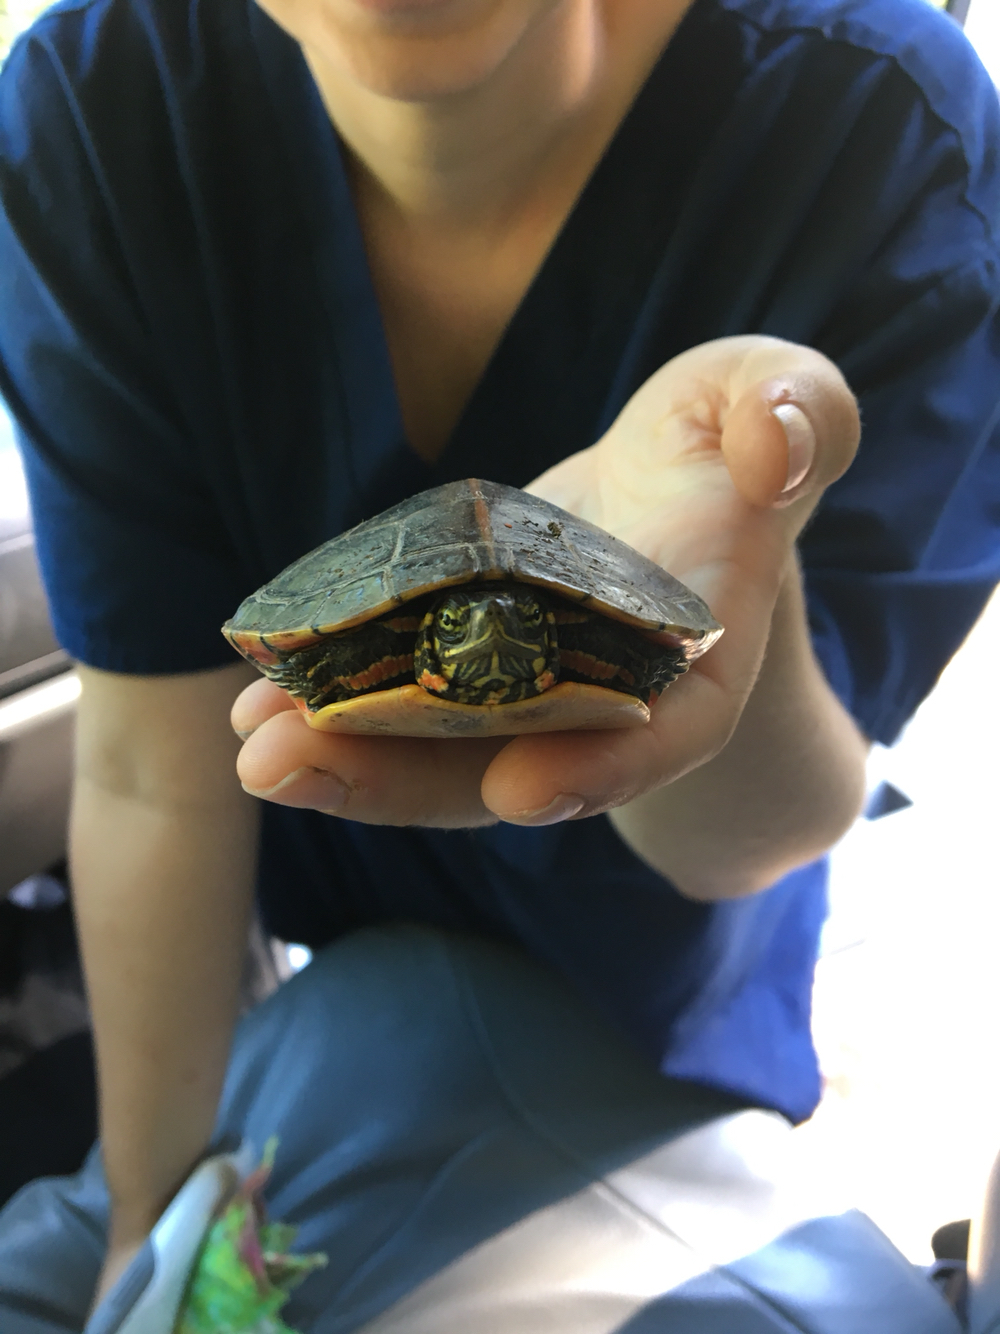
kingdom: Animalia
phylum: Chordata
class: Testudines
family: Emydidae
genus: Chrysemys
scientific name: Chrysemys dorsalis
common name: Southern painted turtle
